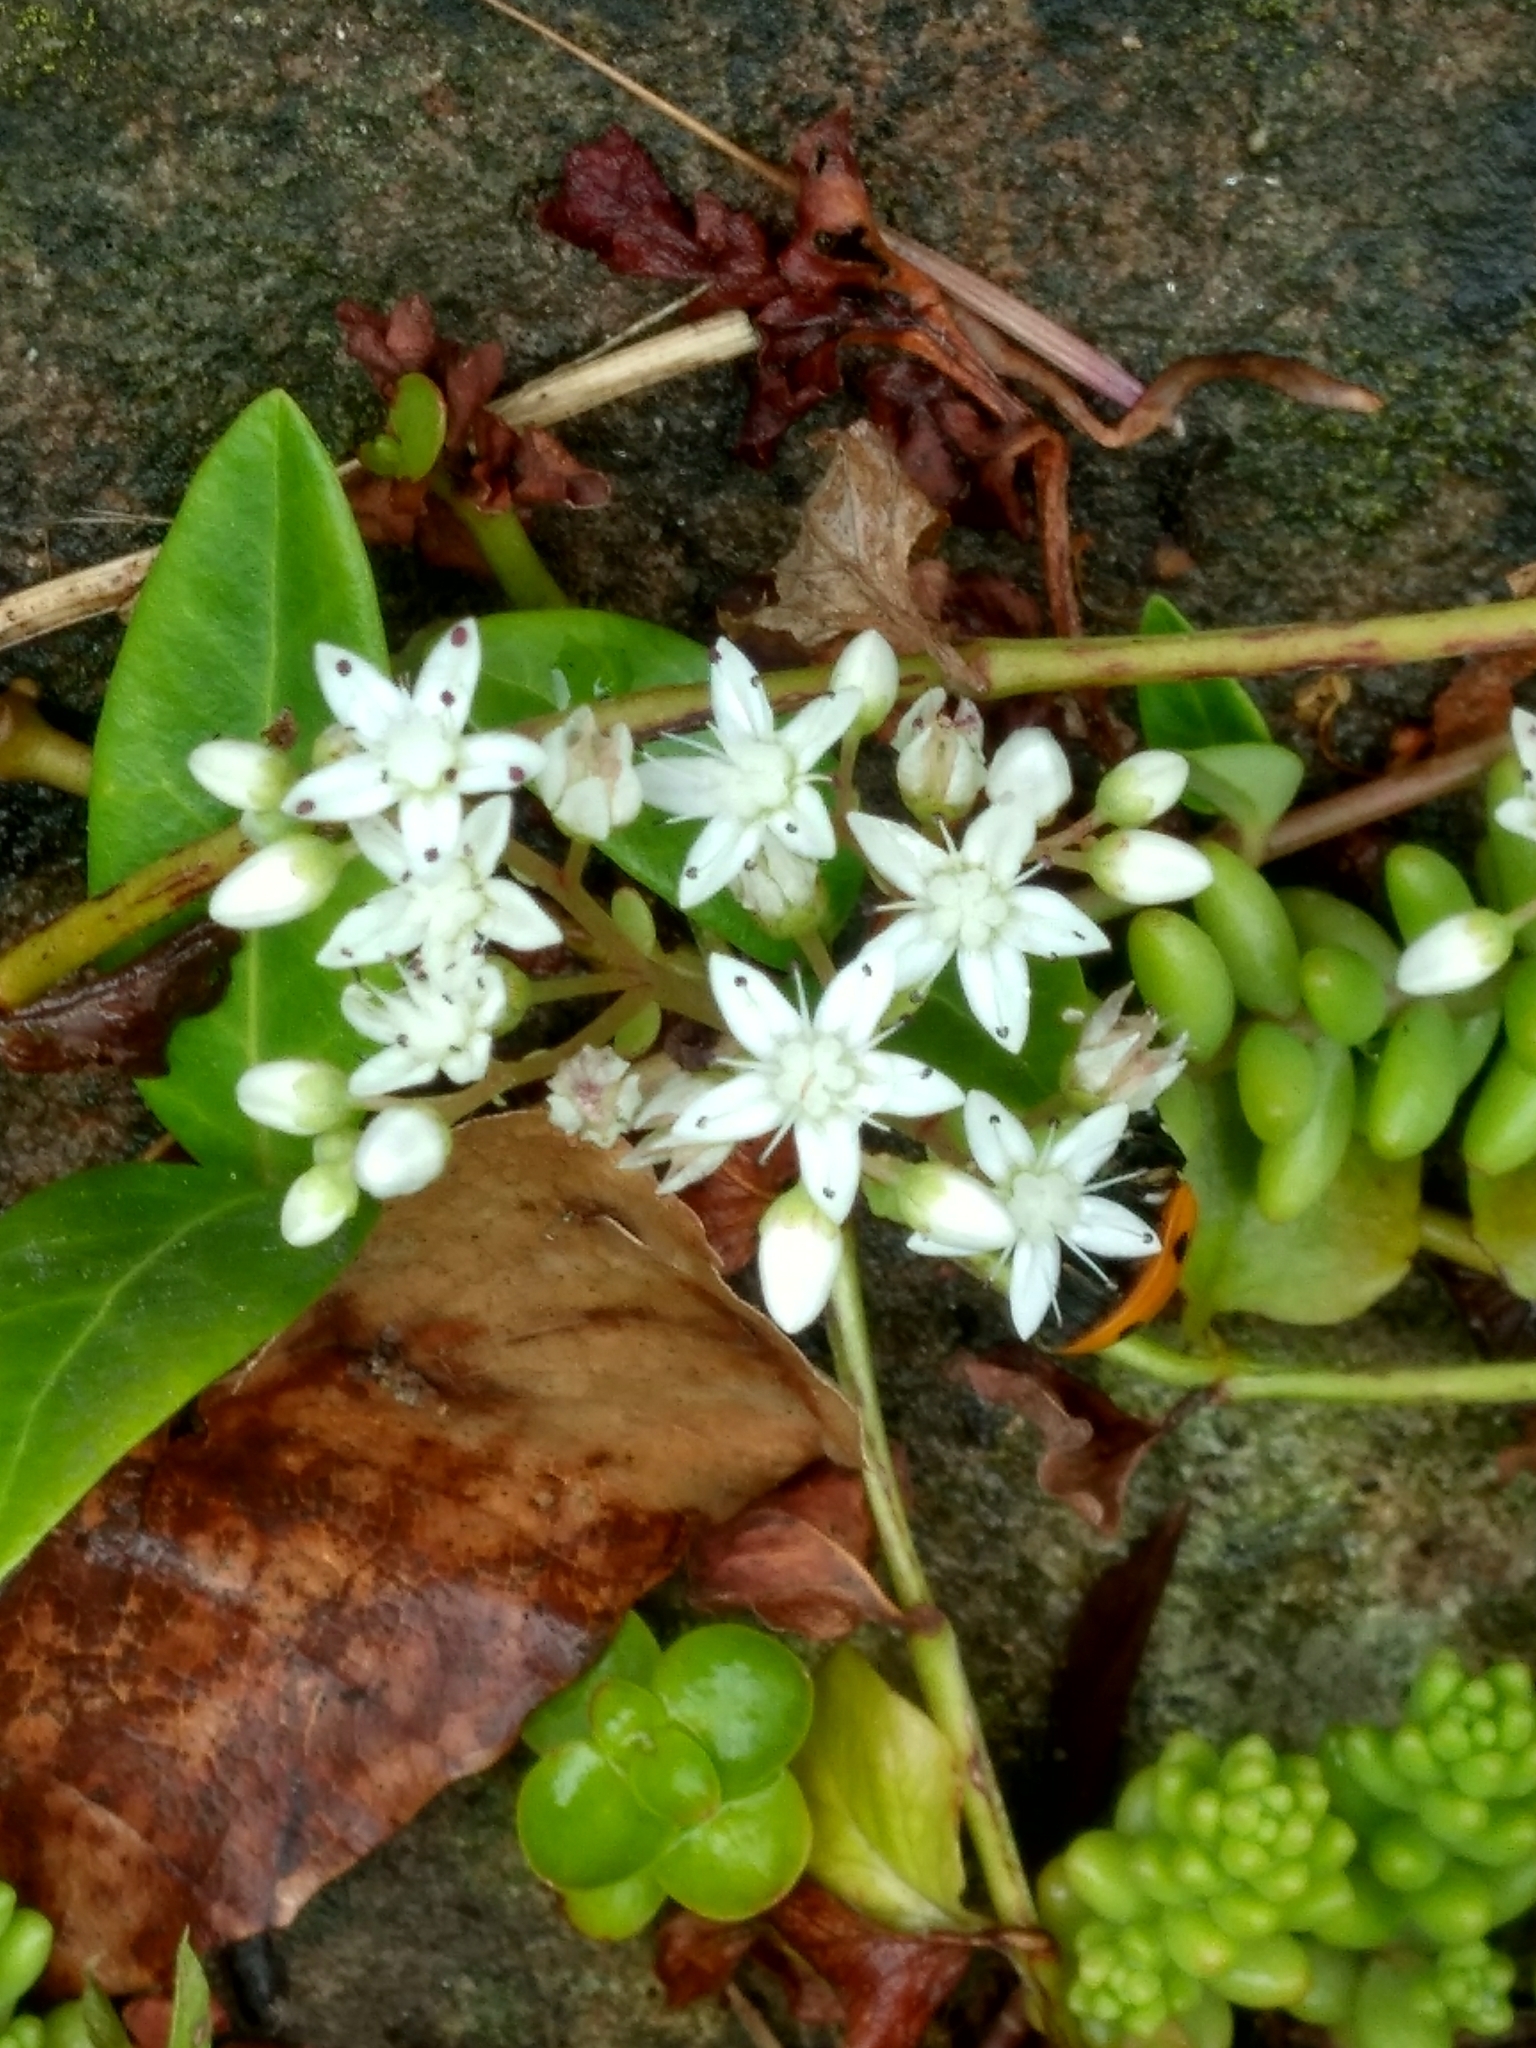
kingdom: Plantae
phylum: Tracheophyta
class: Magnoliopsida
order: Saxifragales
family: Crassulaceae
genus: Sedum
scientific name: Sedum album
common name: White stonecrop
